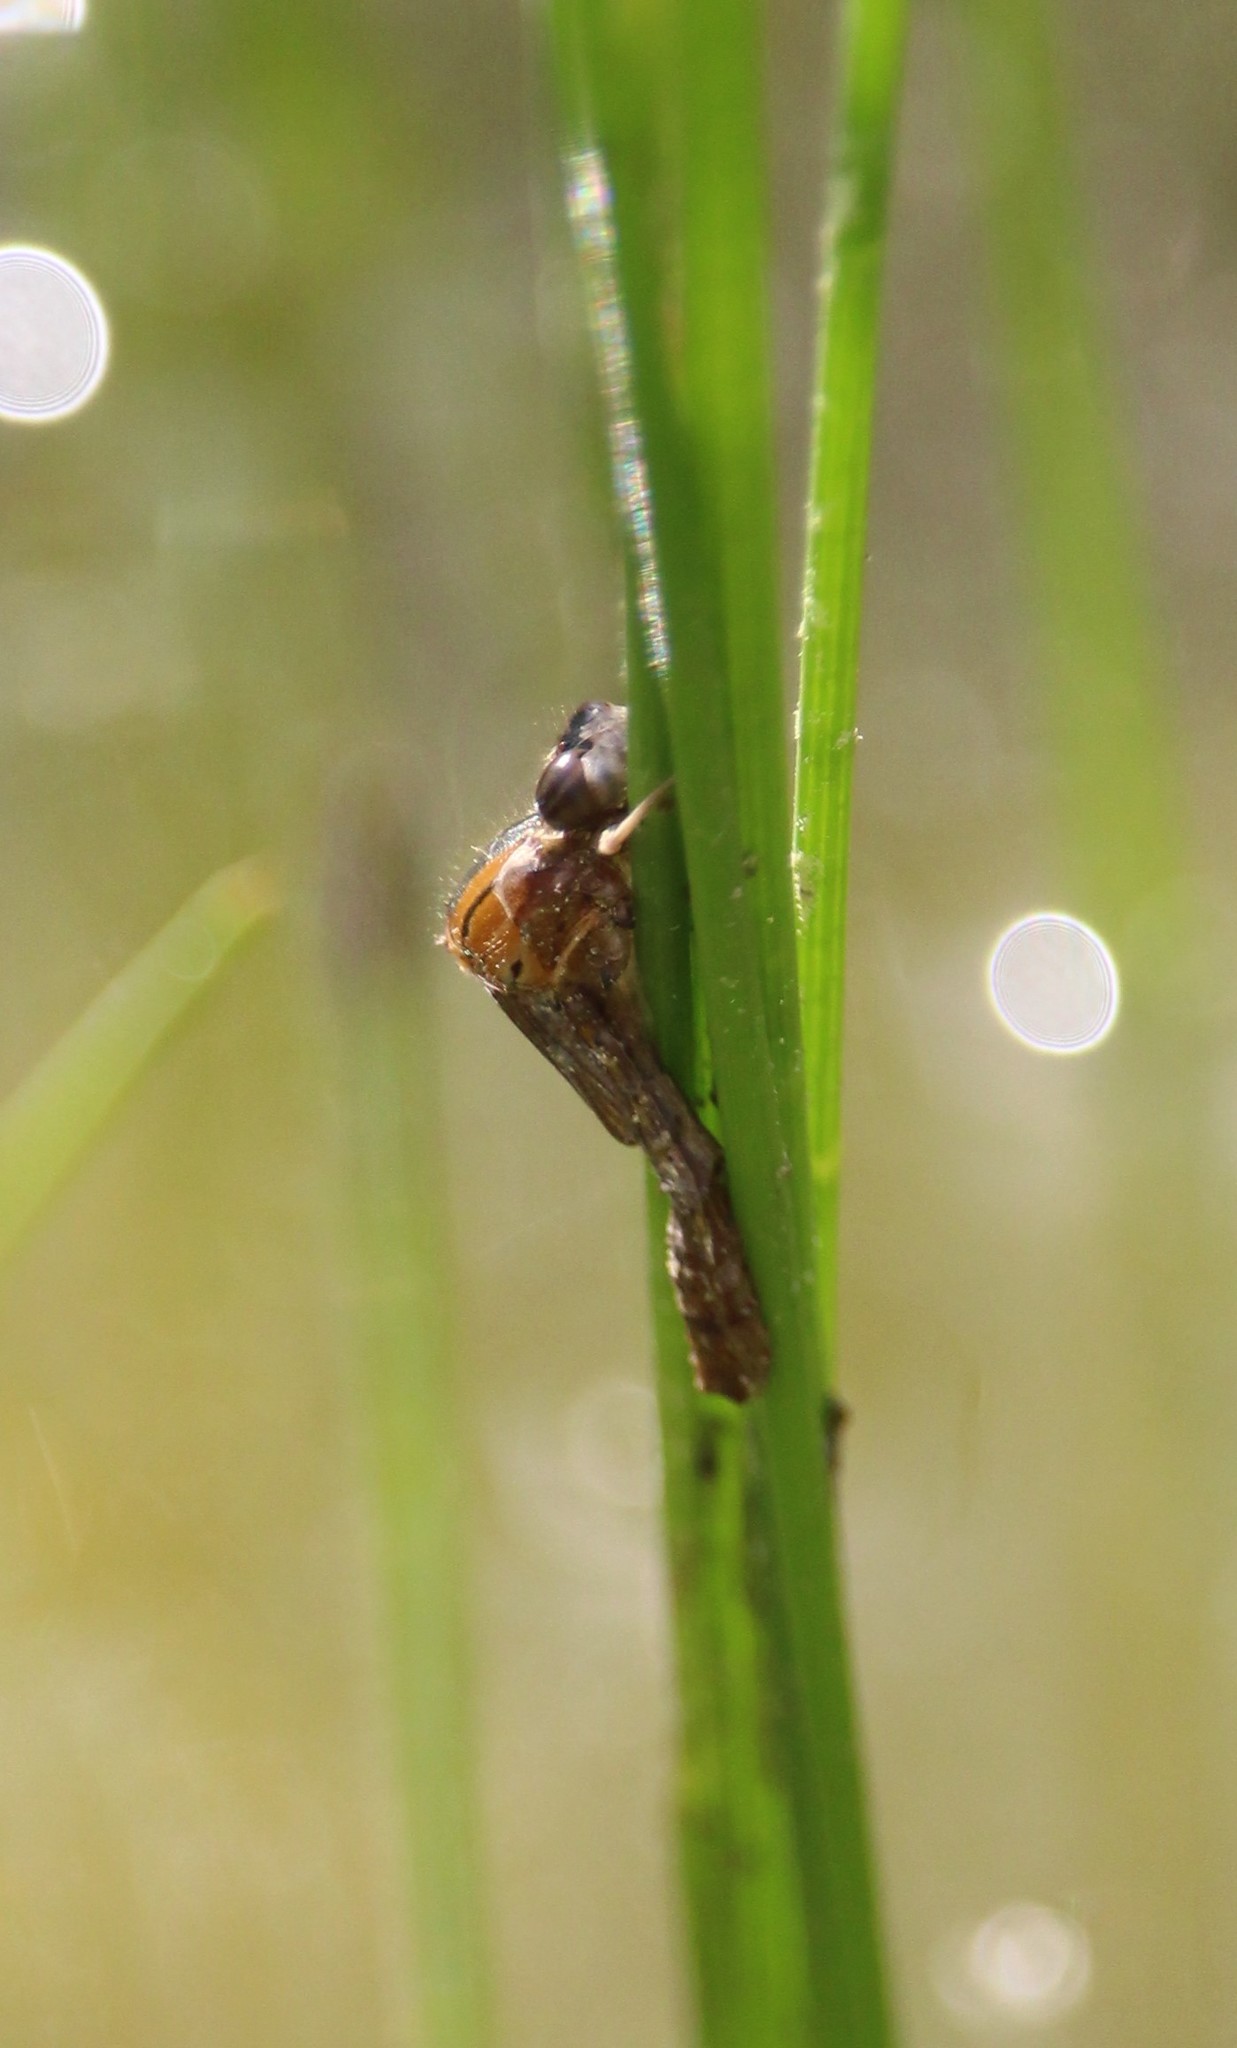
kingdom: Animalia
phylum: Arthropoda
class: Insecta
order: Odonata
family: Coenagrionidae
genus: Enallagma
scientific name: Enallagma signatum
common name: Orange bluet
